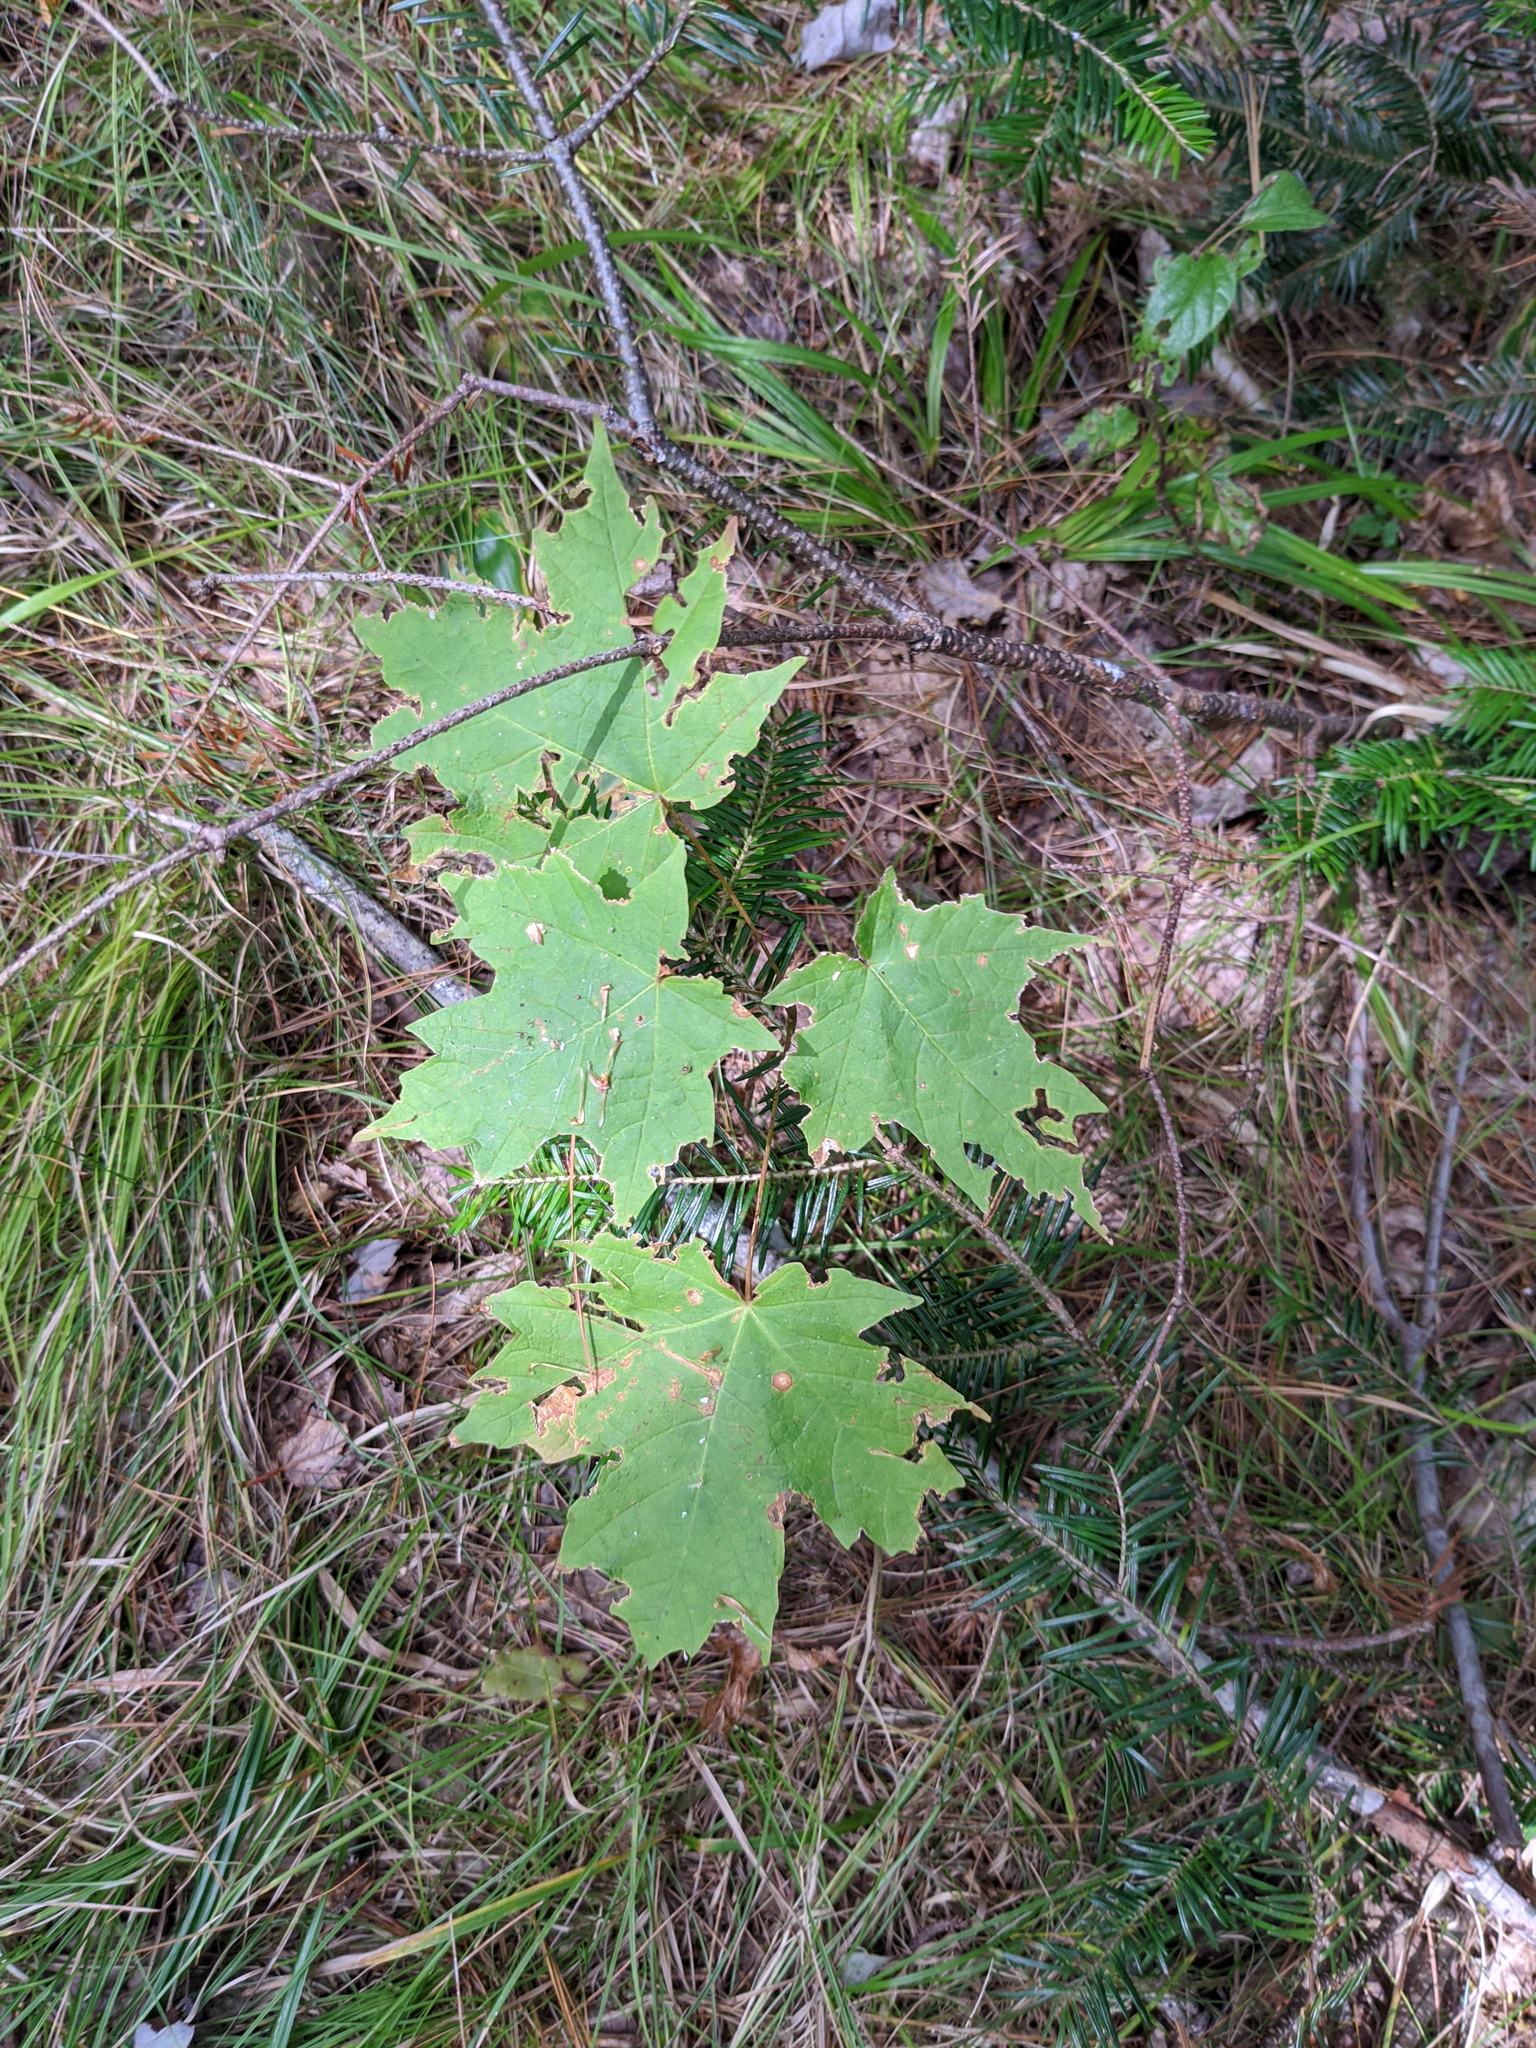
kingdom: Plantae
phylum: Tracheophyta
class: Magnoliopsida
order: Sapindales
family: Sapindaceae
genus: Acer
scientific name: Acer saccharum
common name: Sugar maple
